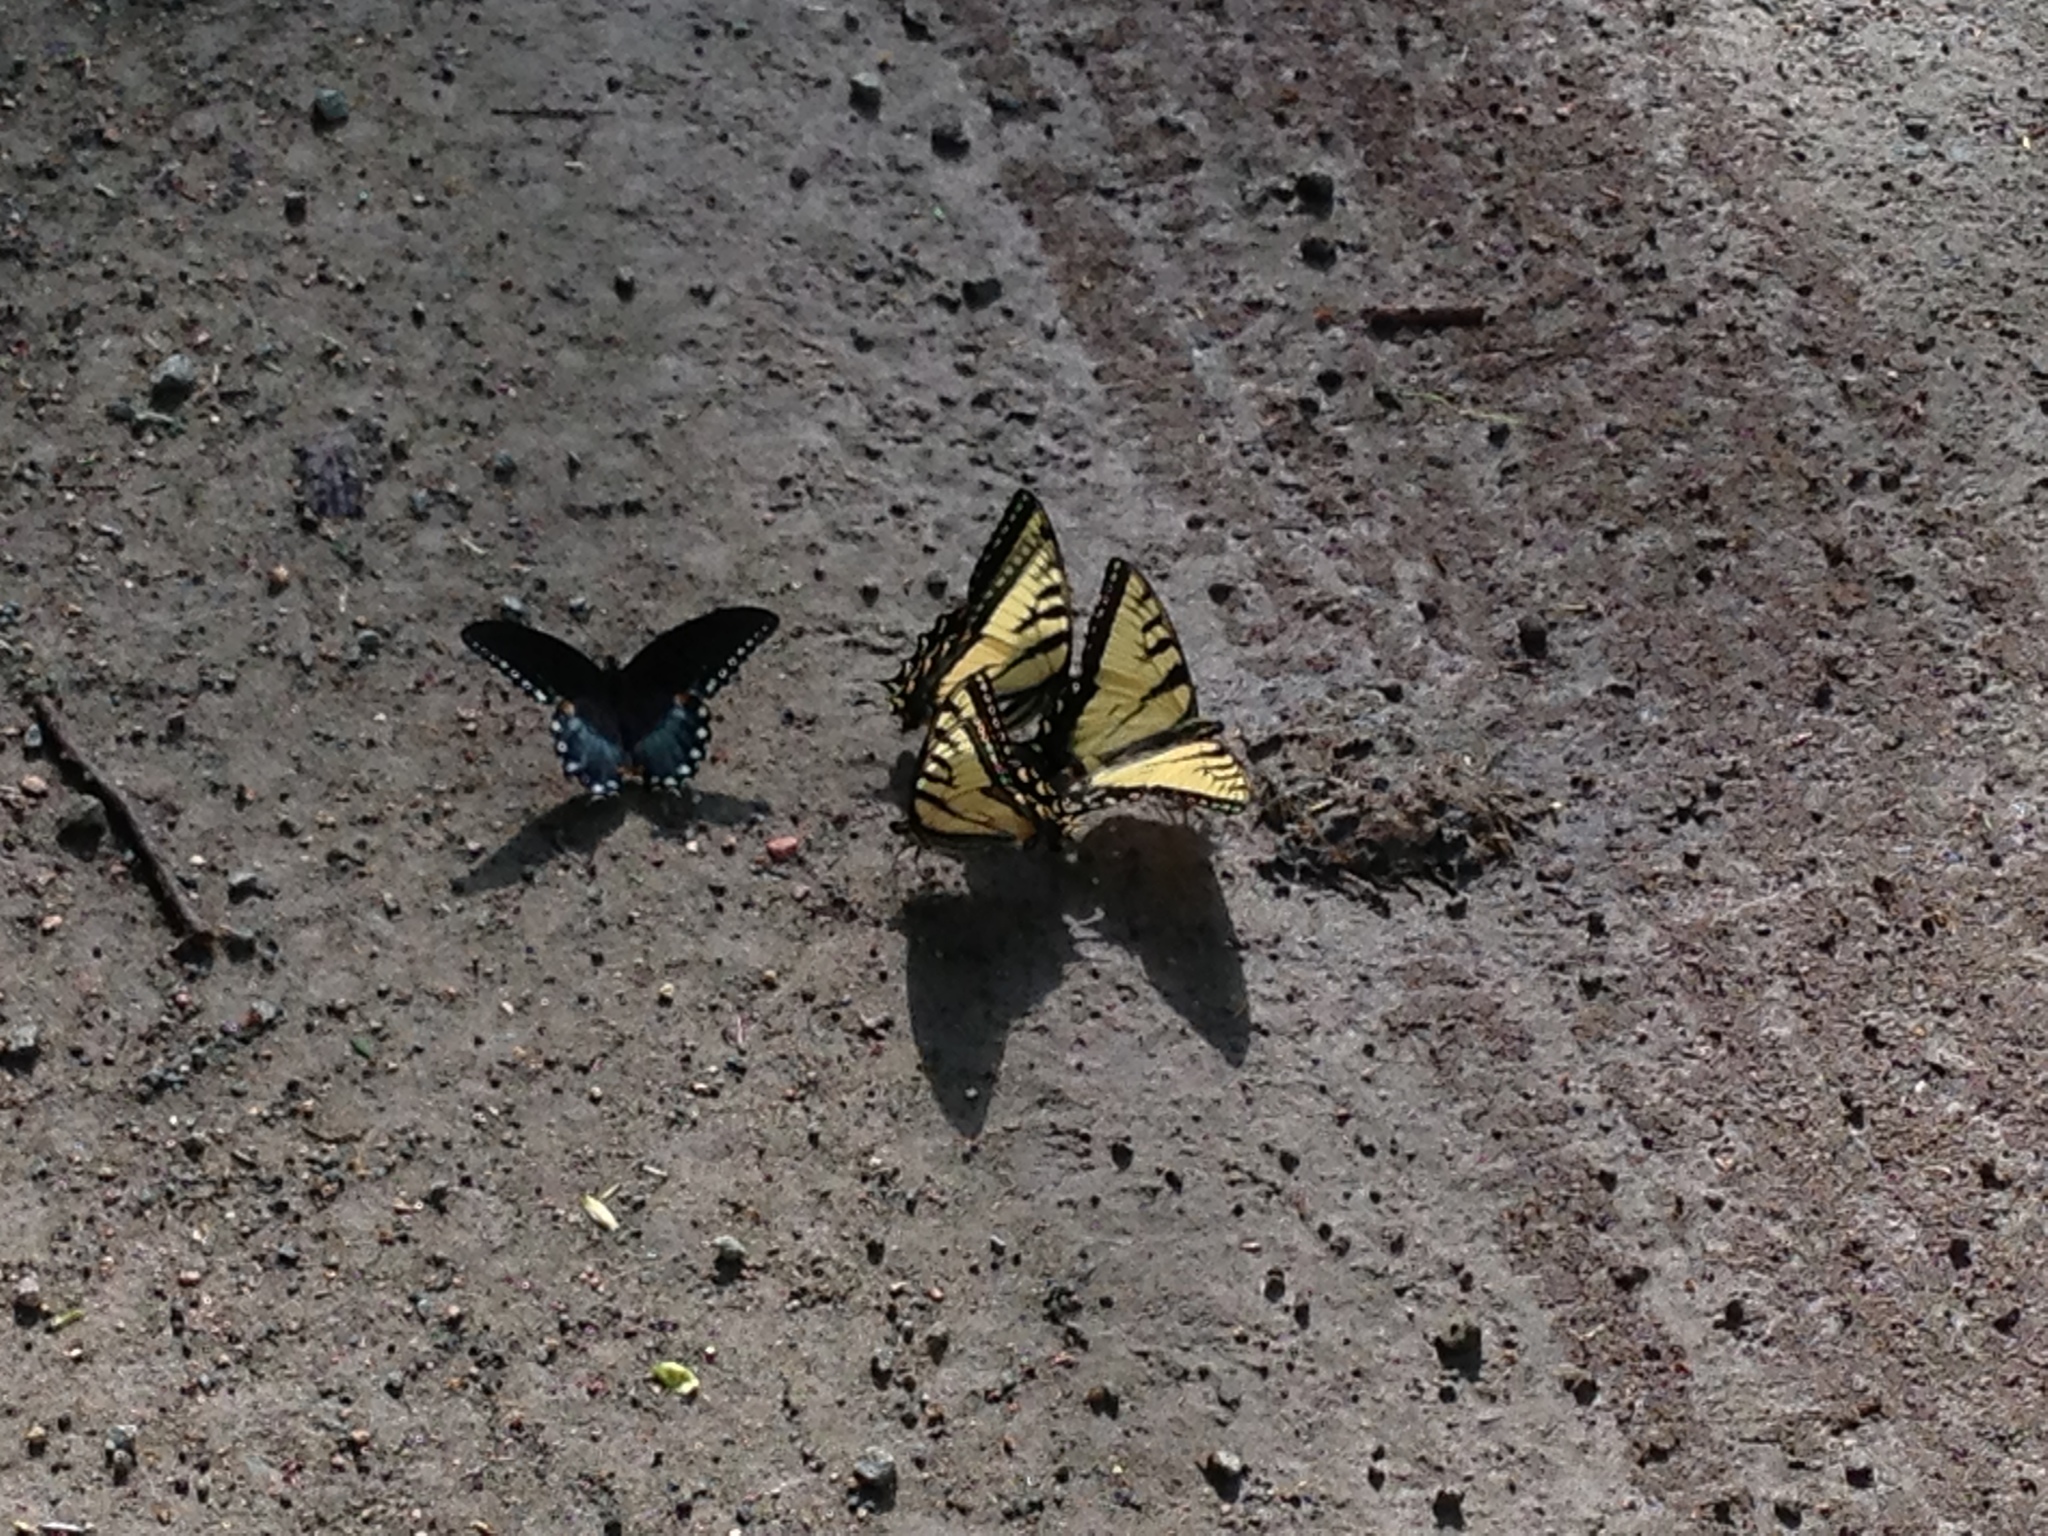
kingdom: Animalia
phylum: Arthropoda
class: Insecta
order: Lepidoptera
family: Papilionidae
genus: Papilio
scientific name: Papilio glaucus
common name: Tiger swallowtail
